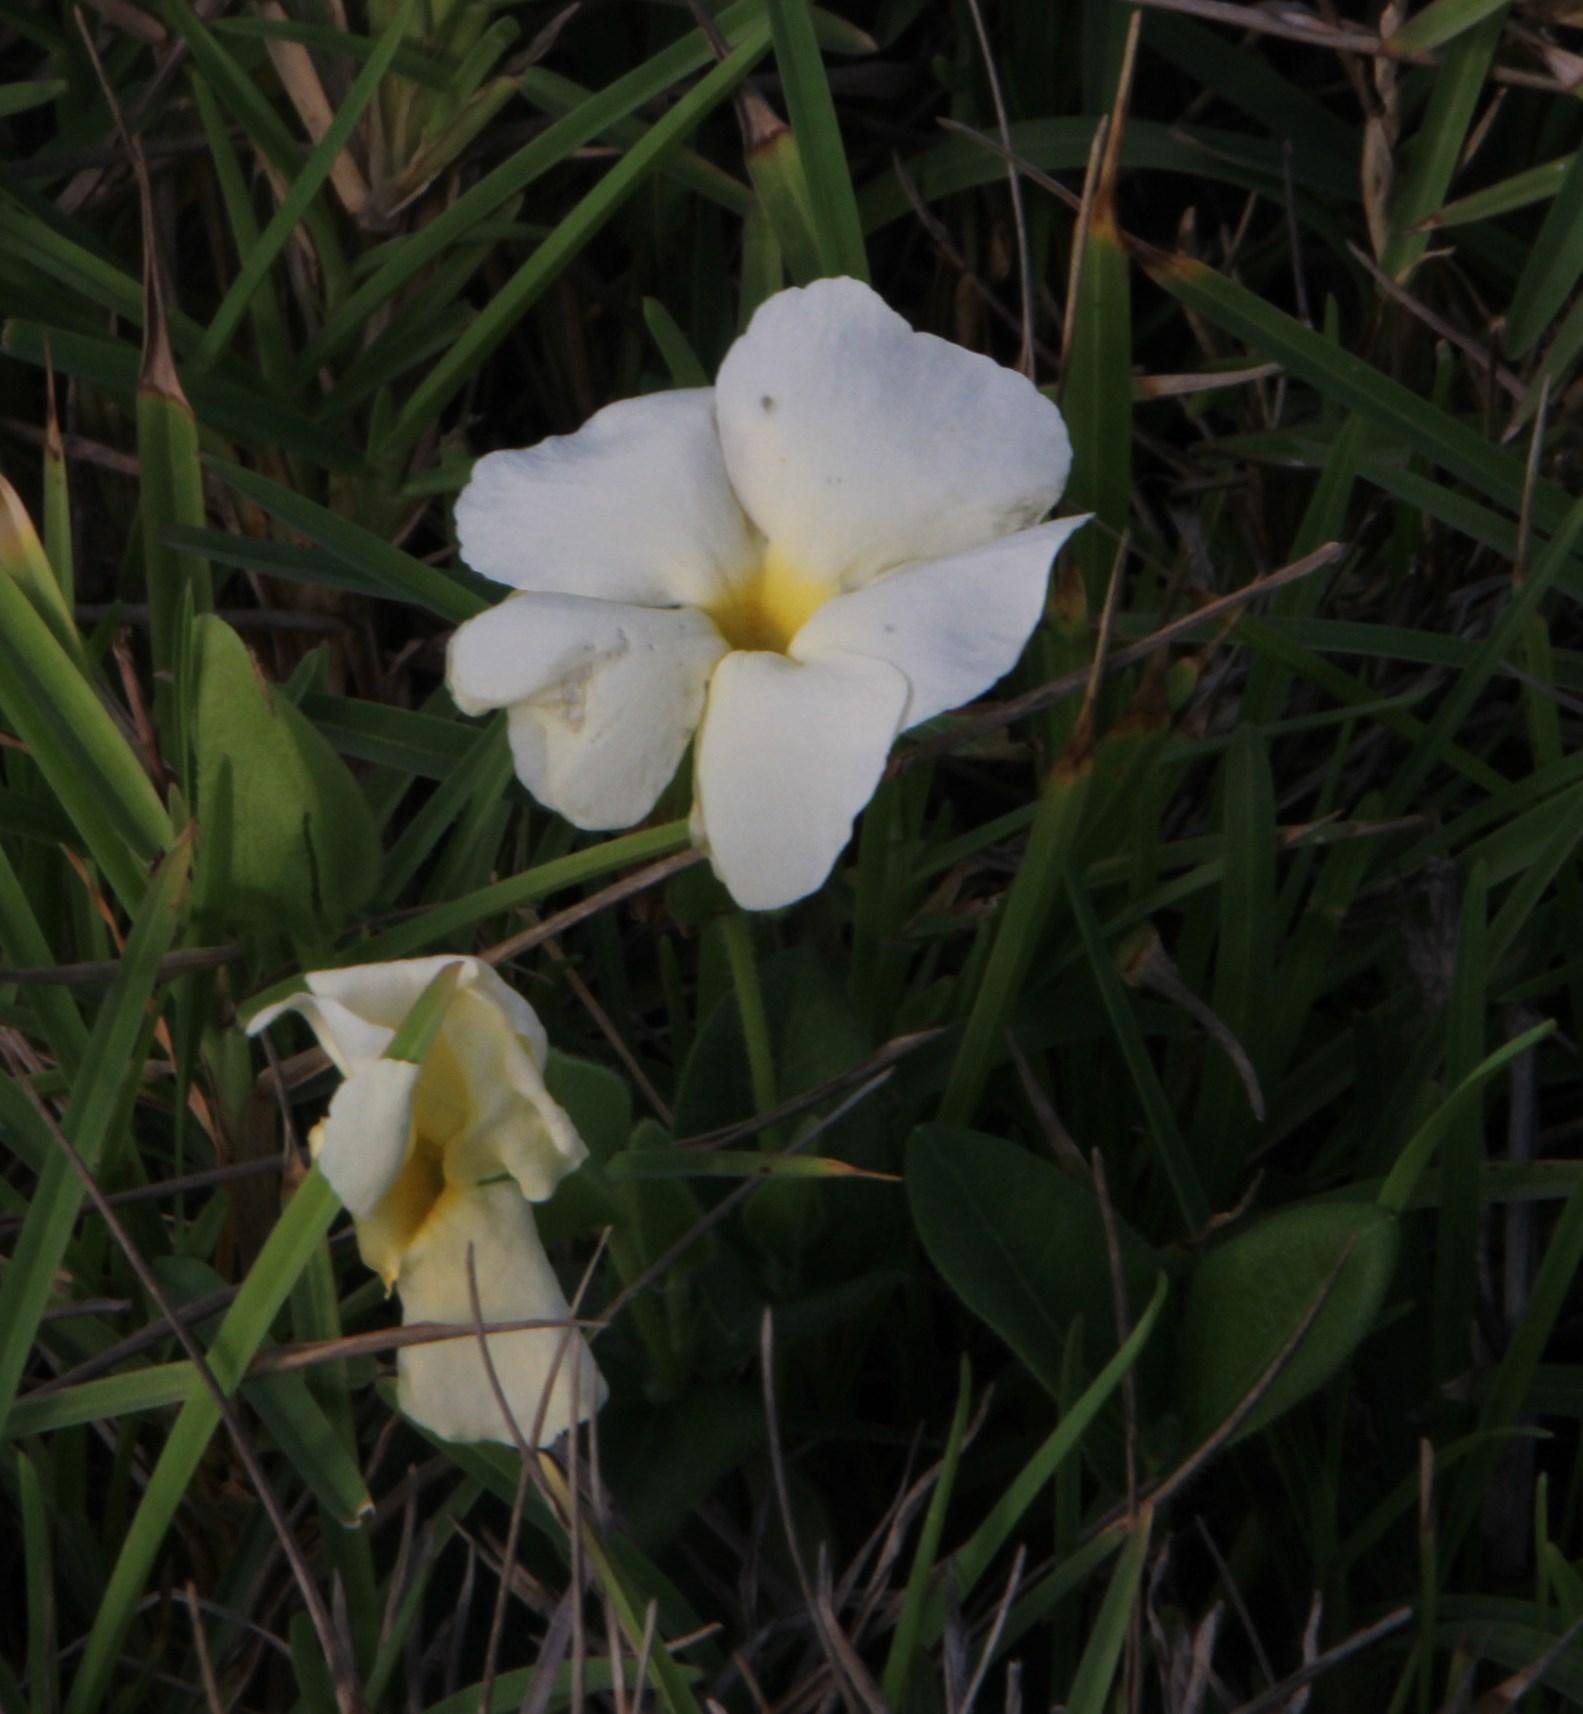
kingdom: Plantae
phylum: Tracheophyta
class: Magnoliopsida
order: Lamiales
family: Acanthaceae
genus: Thunbergia
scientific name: Thunbergia atriplicifolia
